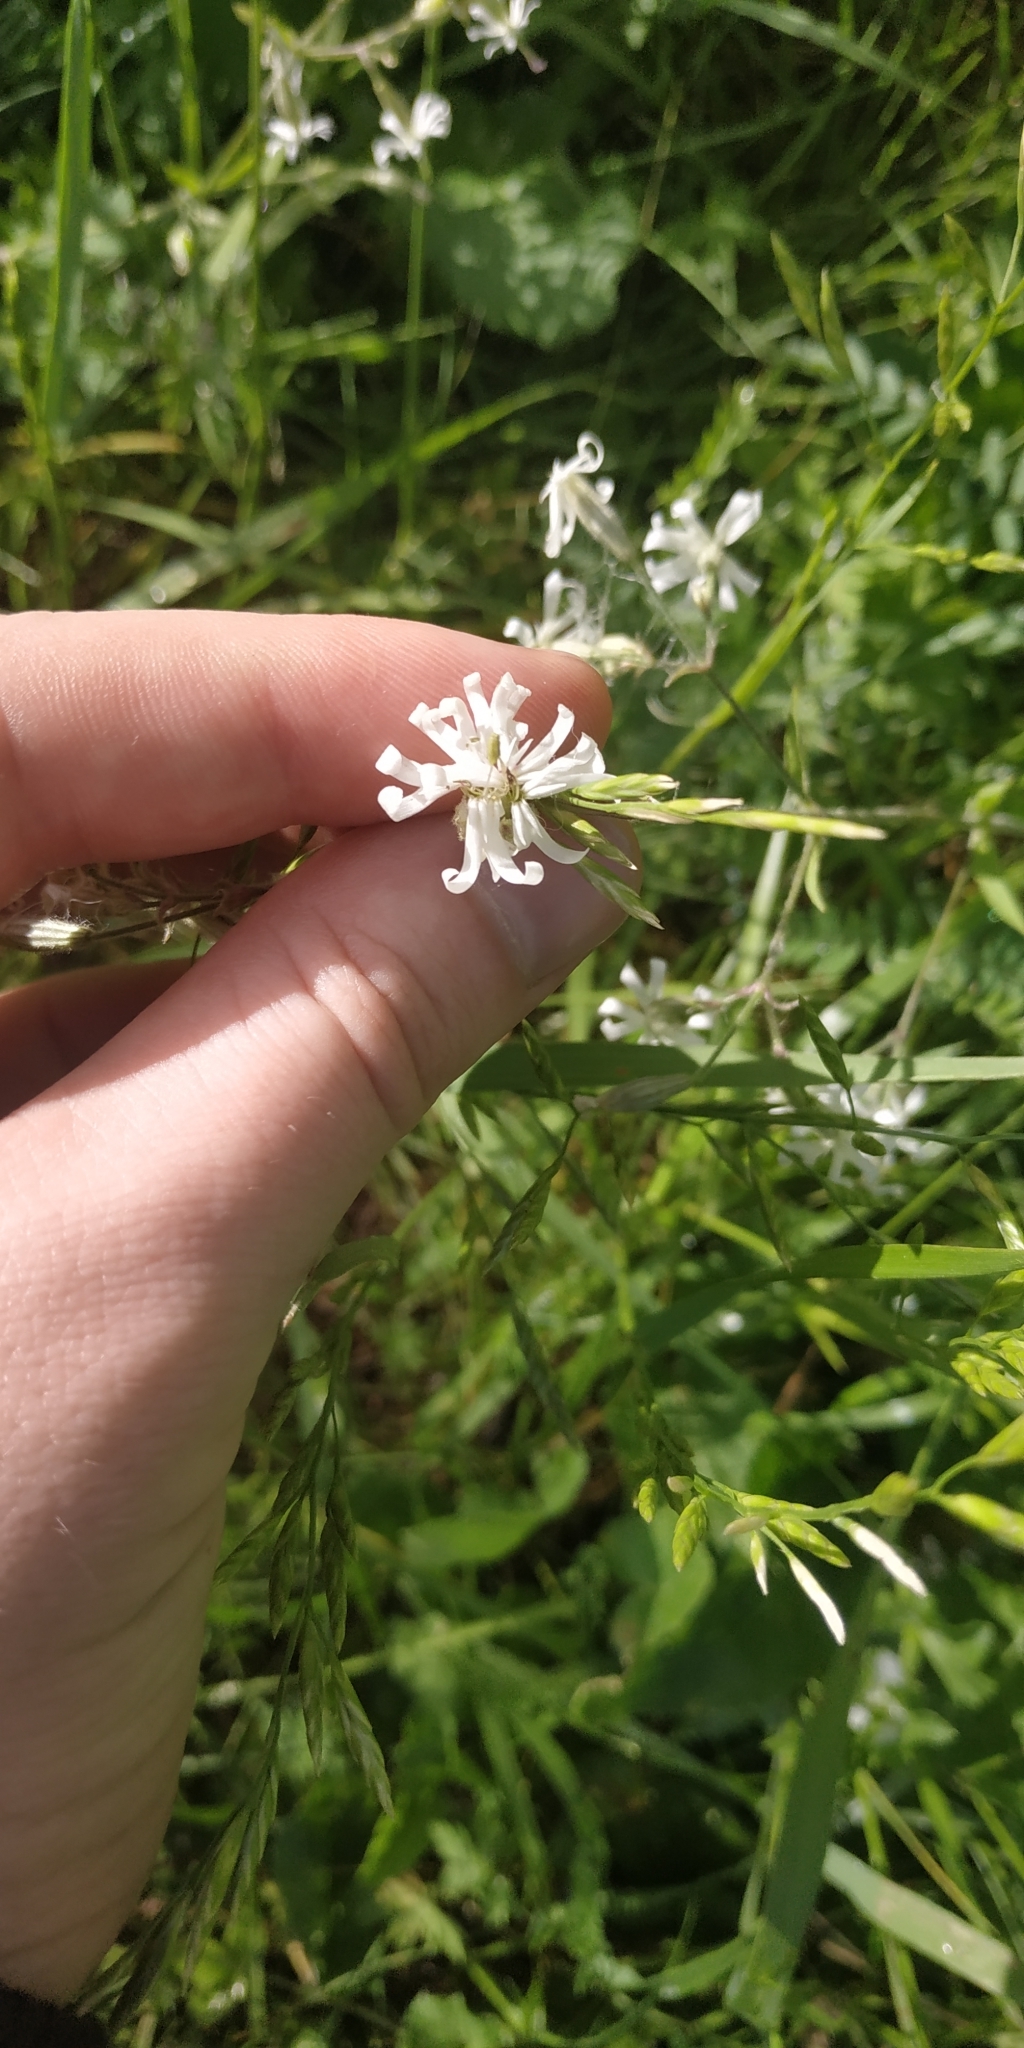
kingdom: Plantae
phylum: Tracheophyta
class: Magnoliopsida
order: Caryophyllales
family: Caryophyllaceae
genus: Silene
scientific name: Silene nutans
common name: Nottingham catchfly
